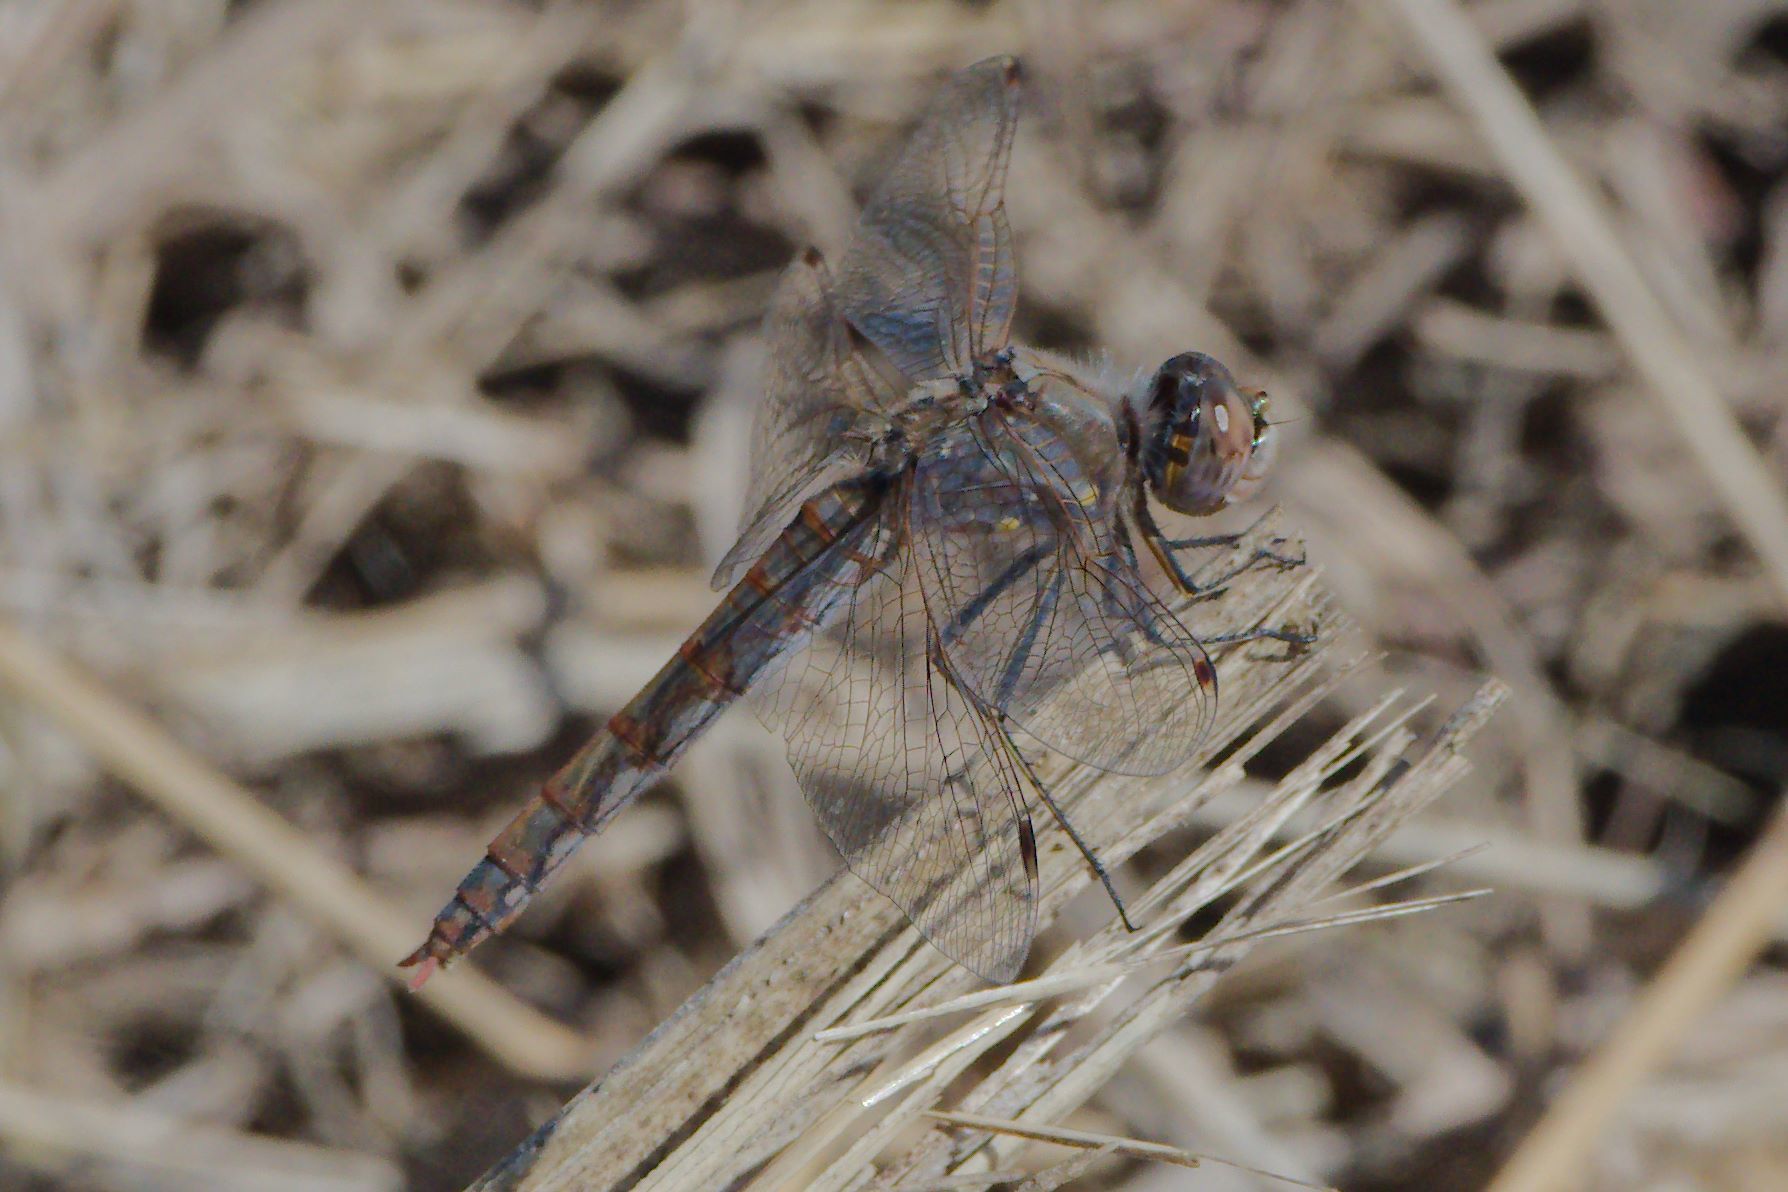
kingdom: Animalia
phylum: Arthropoda
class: Insecta
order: Odonata
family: Libellulidae
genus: Sympetrum
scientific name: Sympetrum corruptum
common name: Variegated meadowhawk
